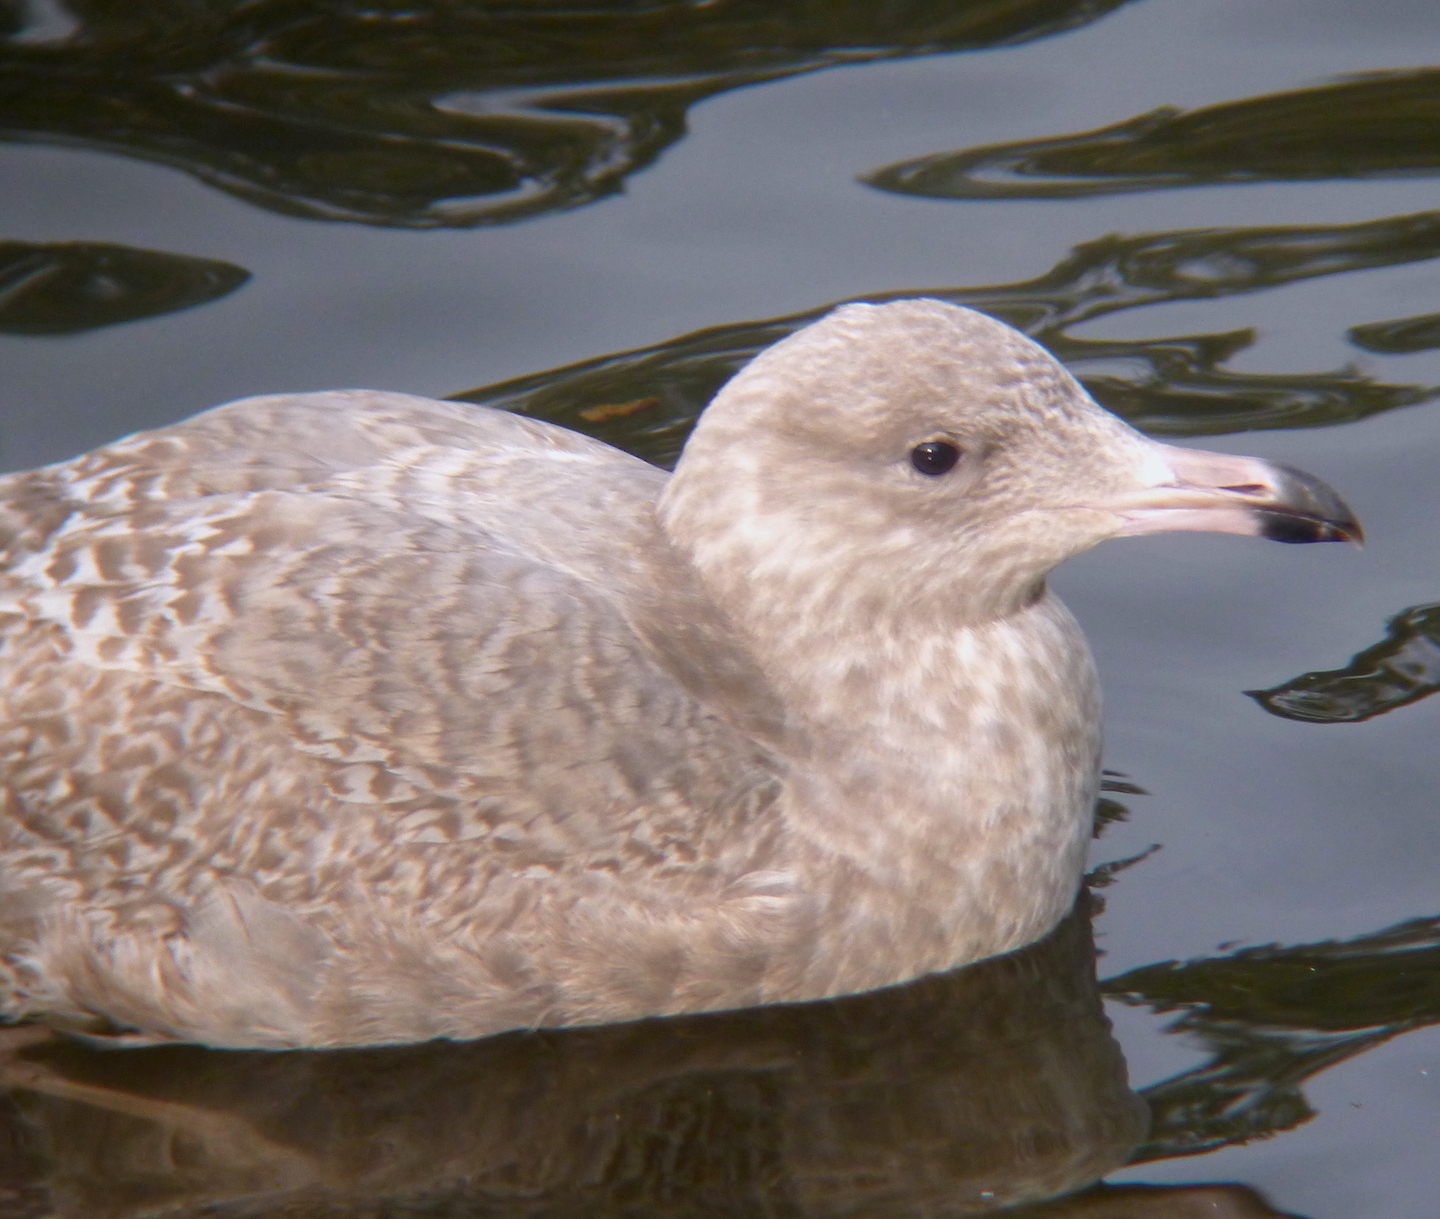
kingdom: Animalia
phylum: Chordata
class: Aves
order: Charadriiformes
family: Laridae
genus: Larus
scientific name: Larus
